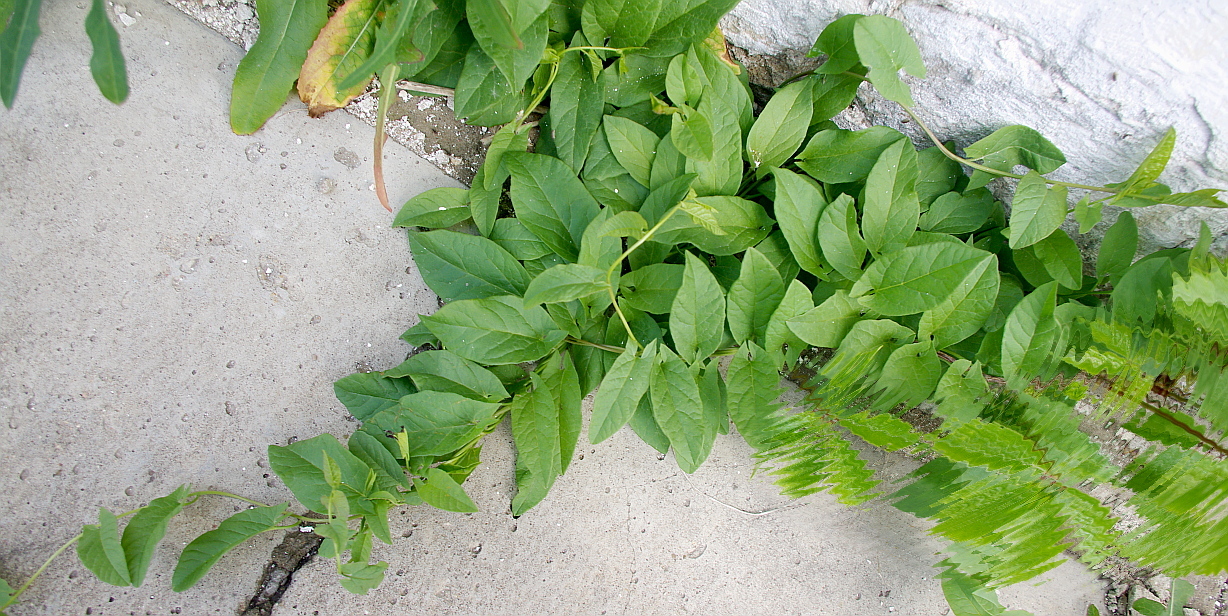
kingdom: Plantae
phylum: Tracheophyta
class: Magnoliopsida
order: Solanales
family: Convolvulaceae
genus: Convolvulus
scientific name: Convolvulus arvensis
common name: Field bindweed
